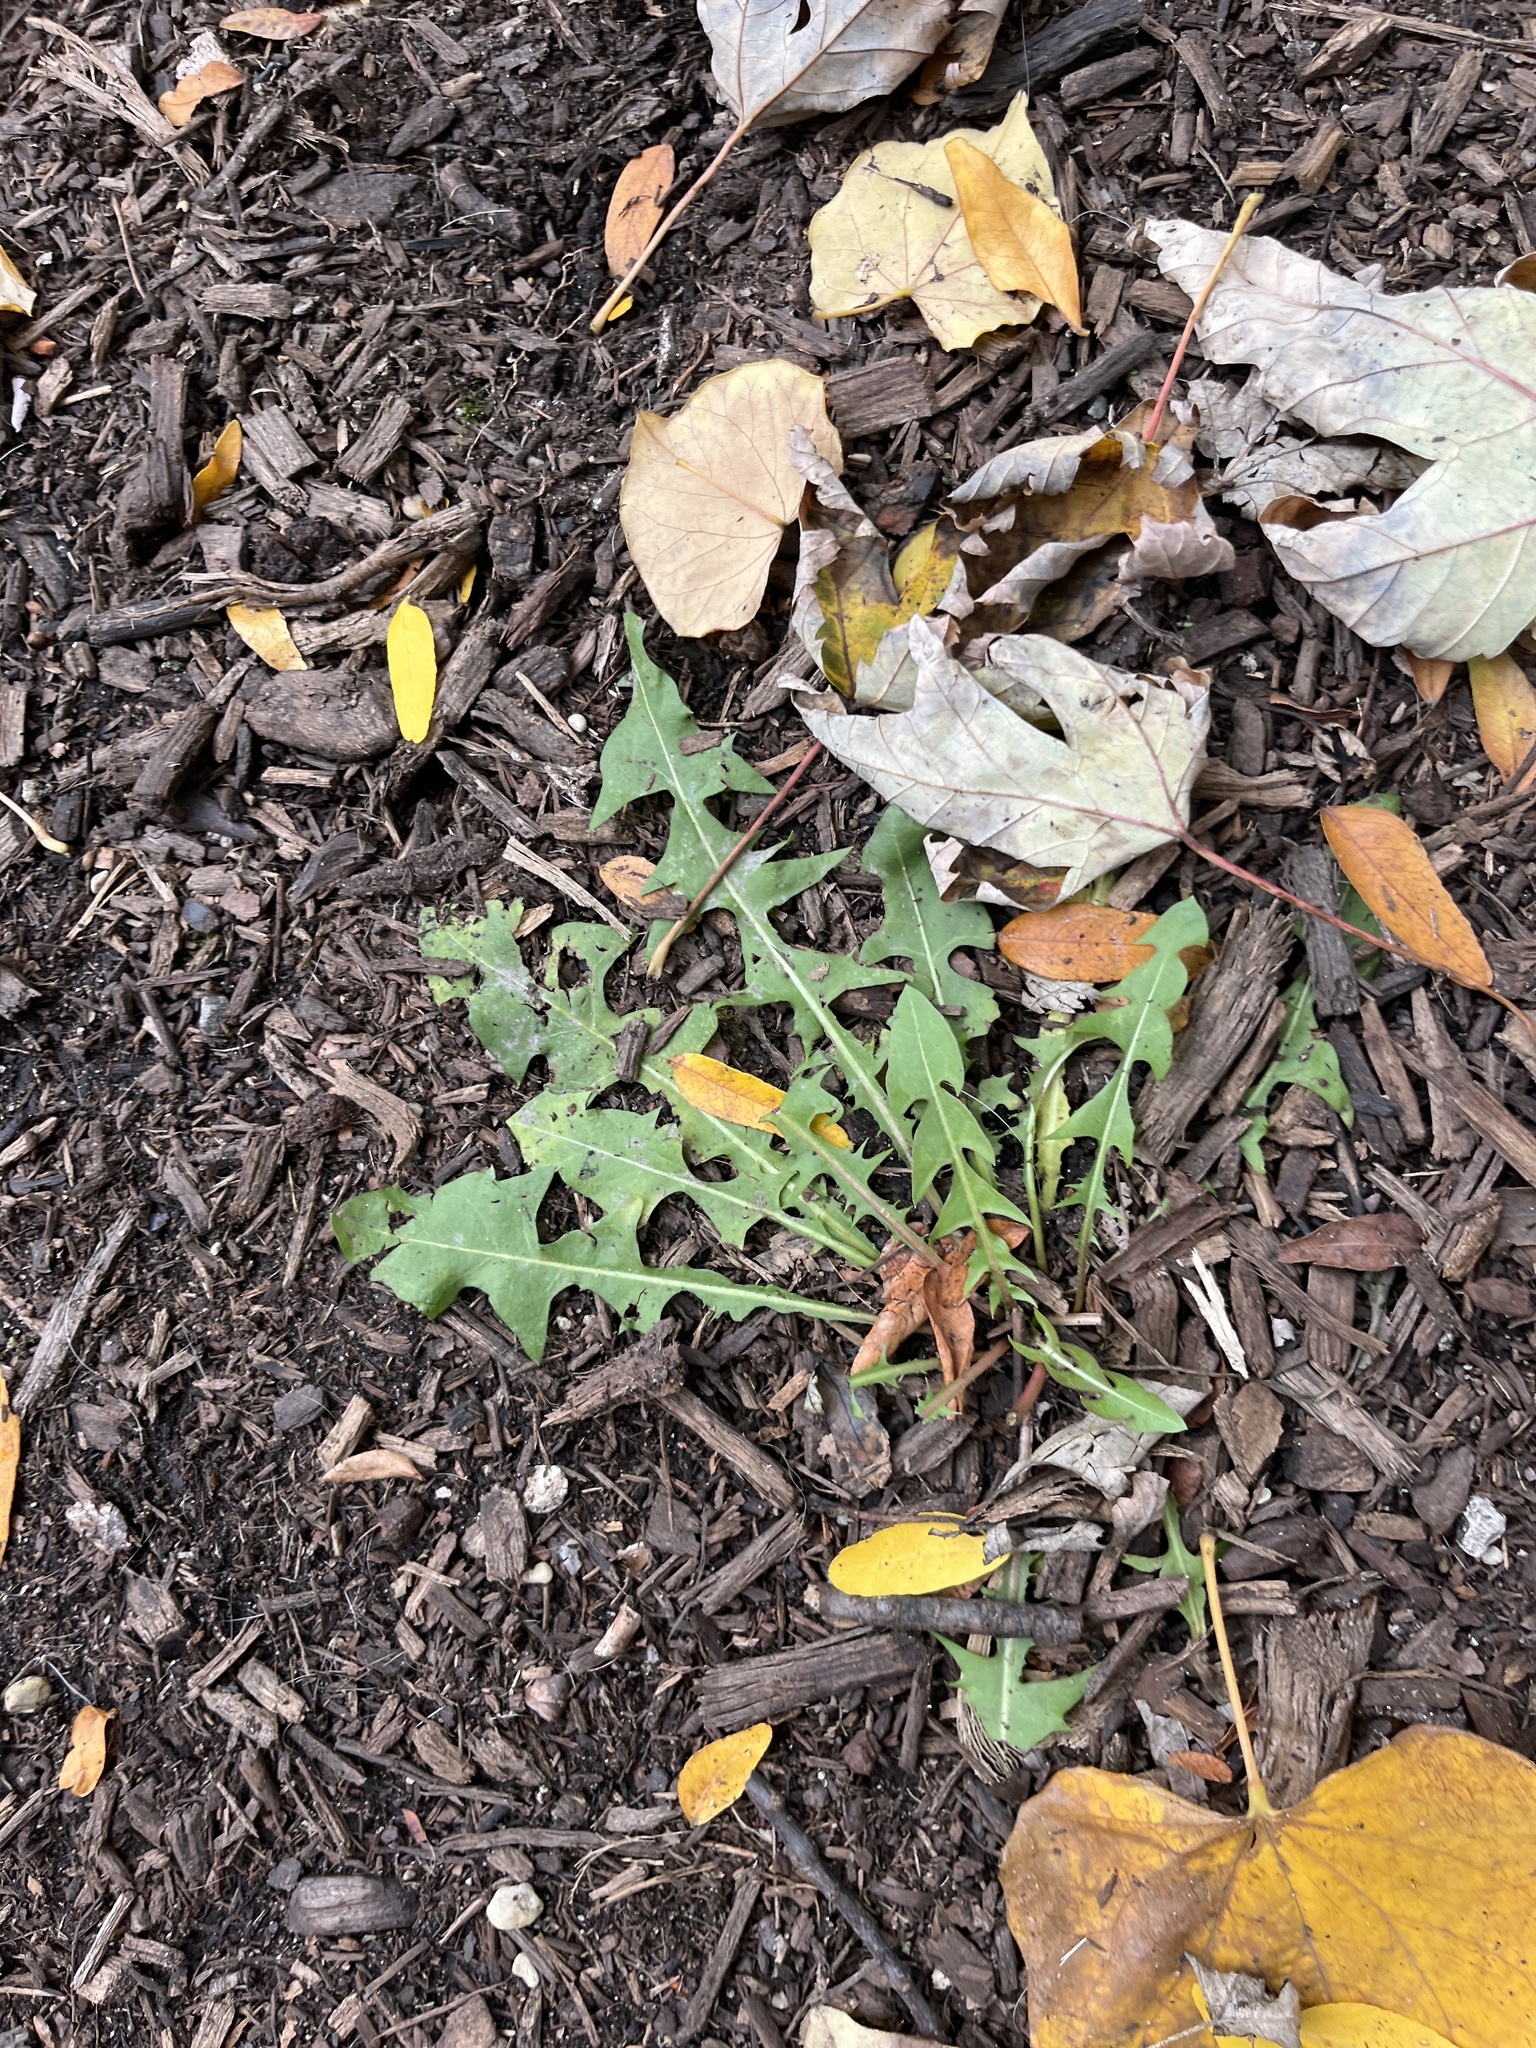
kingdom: Plantae
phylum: Tracheophyta
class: Magnoliopsida
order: Asterales
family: Asteraceae
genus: Taraxacum
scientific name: Taraxacum officinale
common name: Common dandelion
